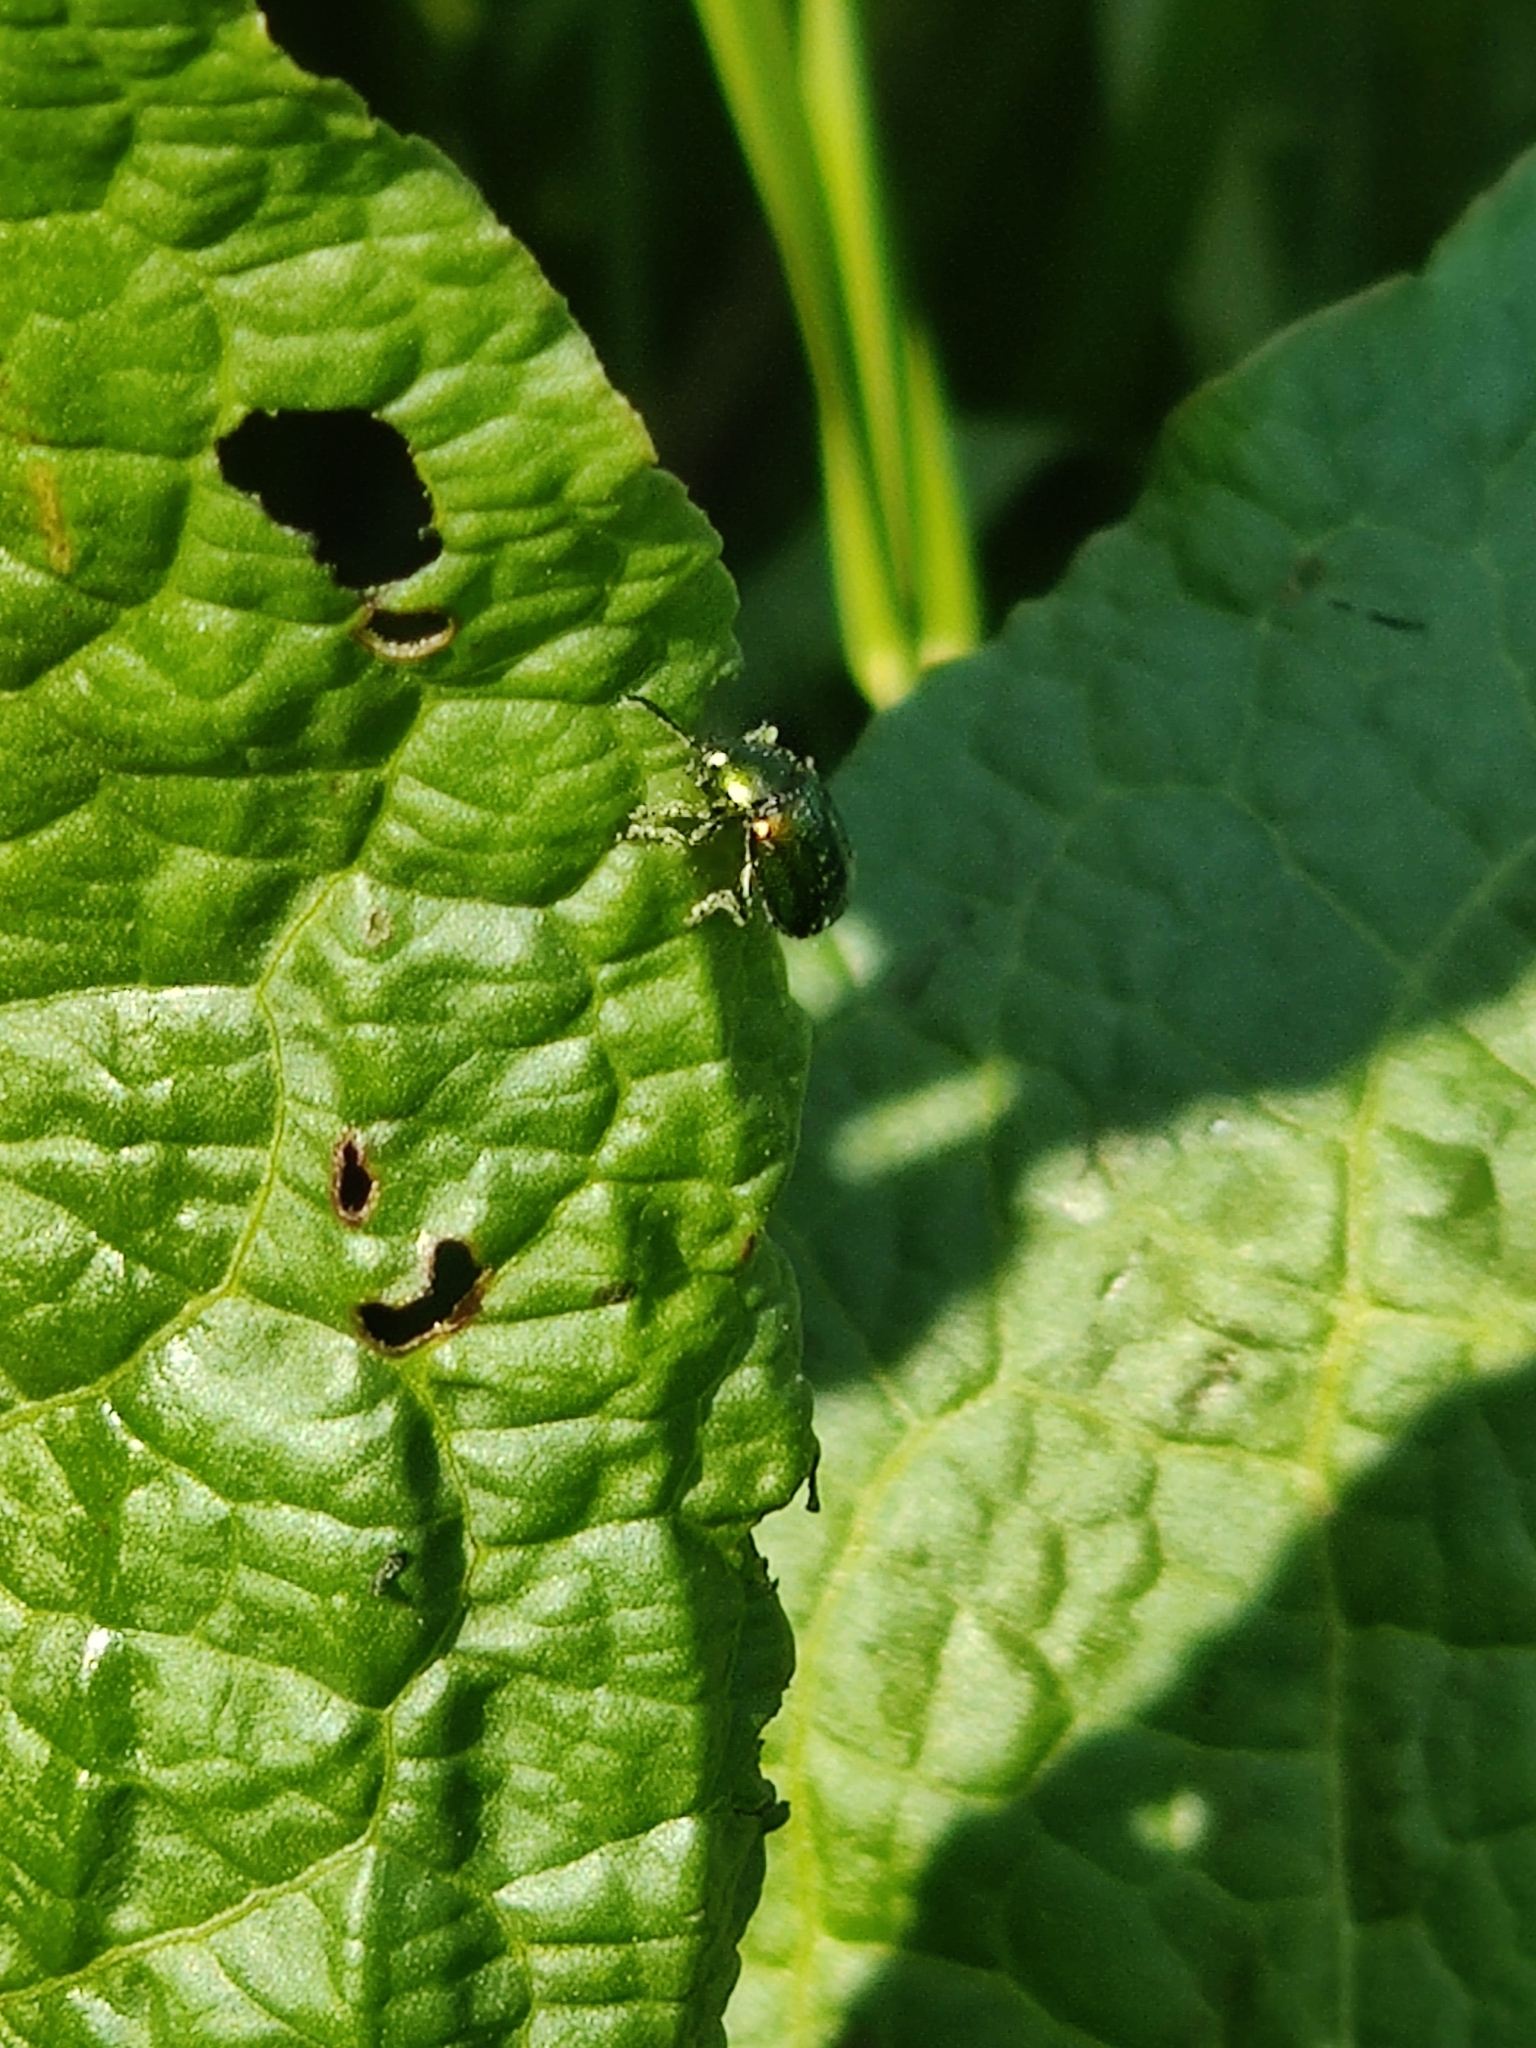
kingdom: Animalia
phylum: Arthropoda
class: Insecta
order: Coleoptera
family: Chrysomelidae
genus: Gastrophysa
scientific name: Gastrophysa viridula
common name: Green dock beetle
